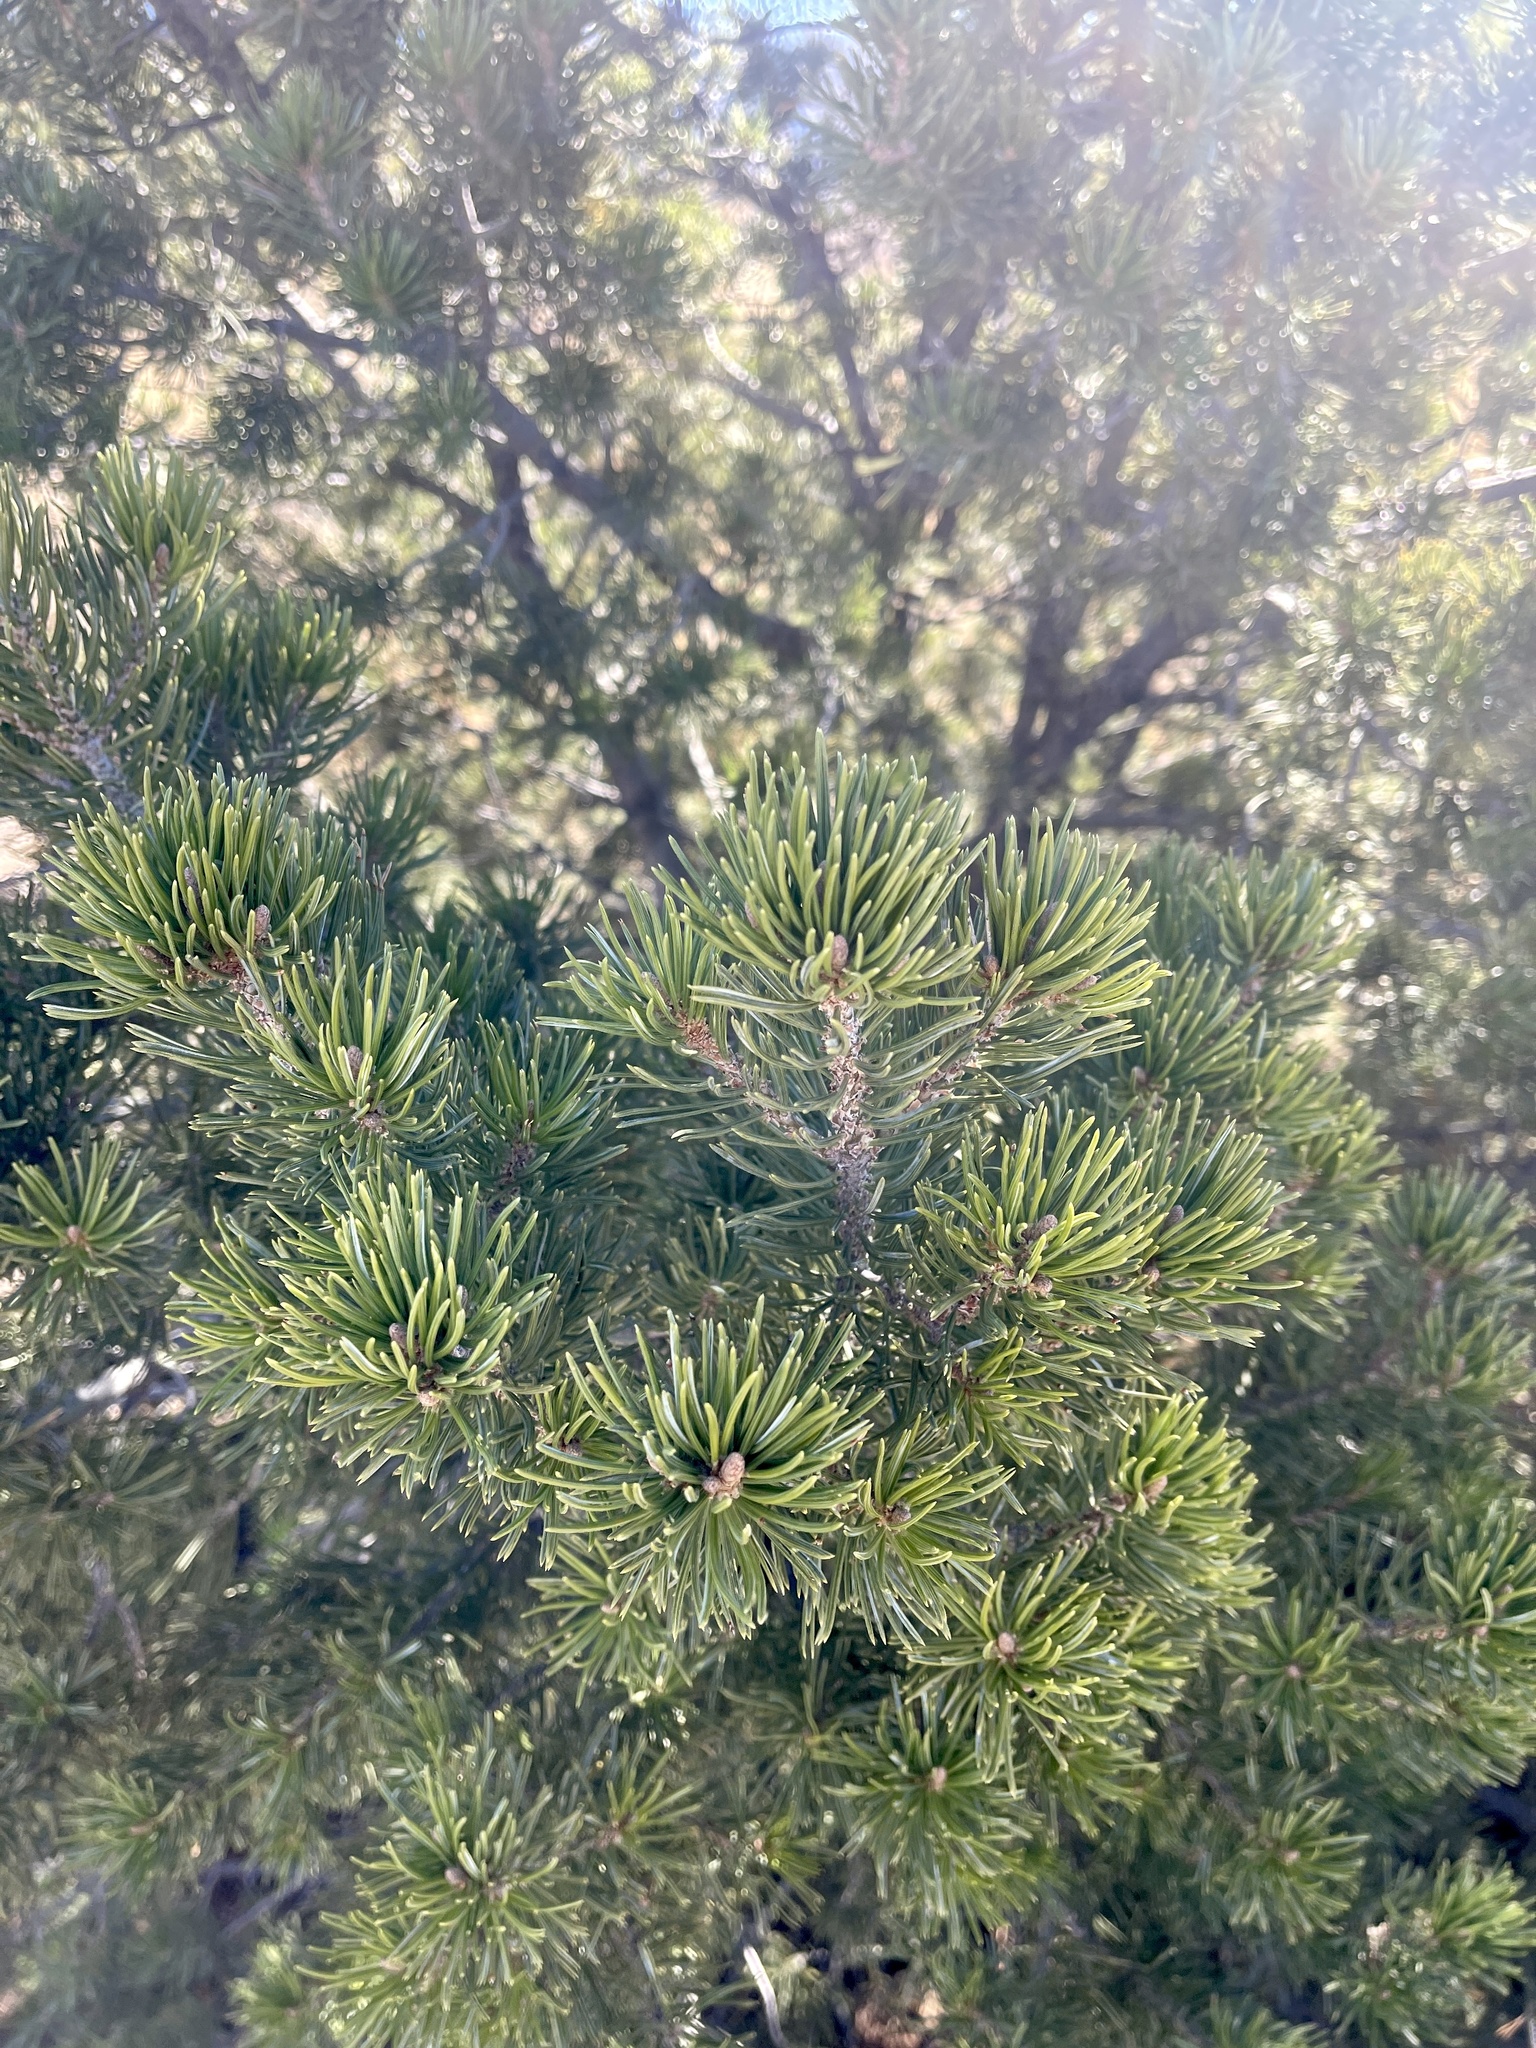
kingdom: Plantae
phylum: Tracheophyta
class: Pinopsida
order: Pinales
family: Pinaceae
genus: Pinus
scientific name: Pinus edulis
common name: Colorado pinyon
